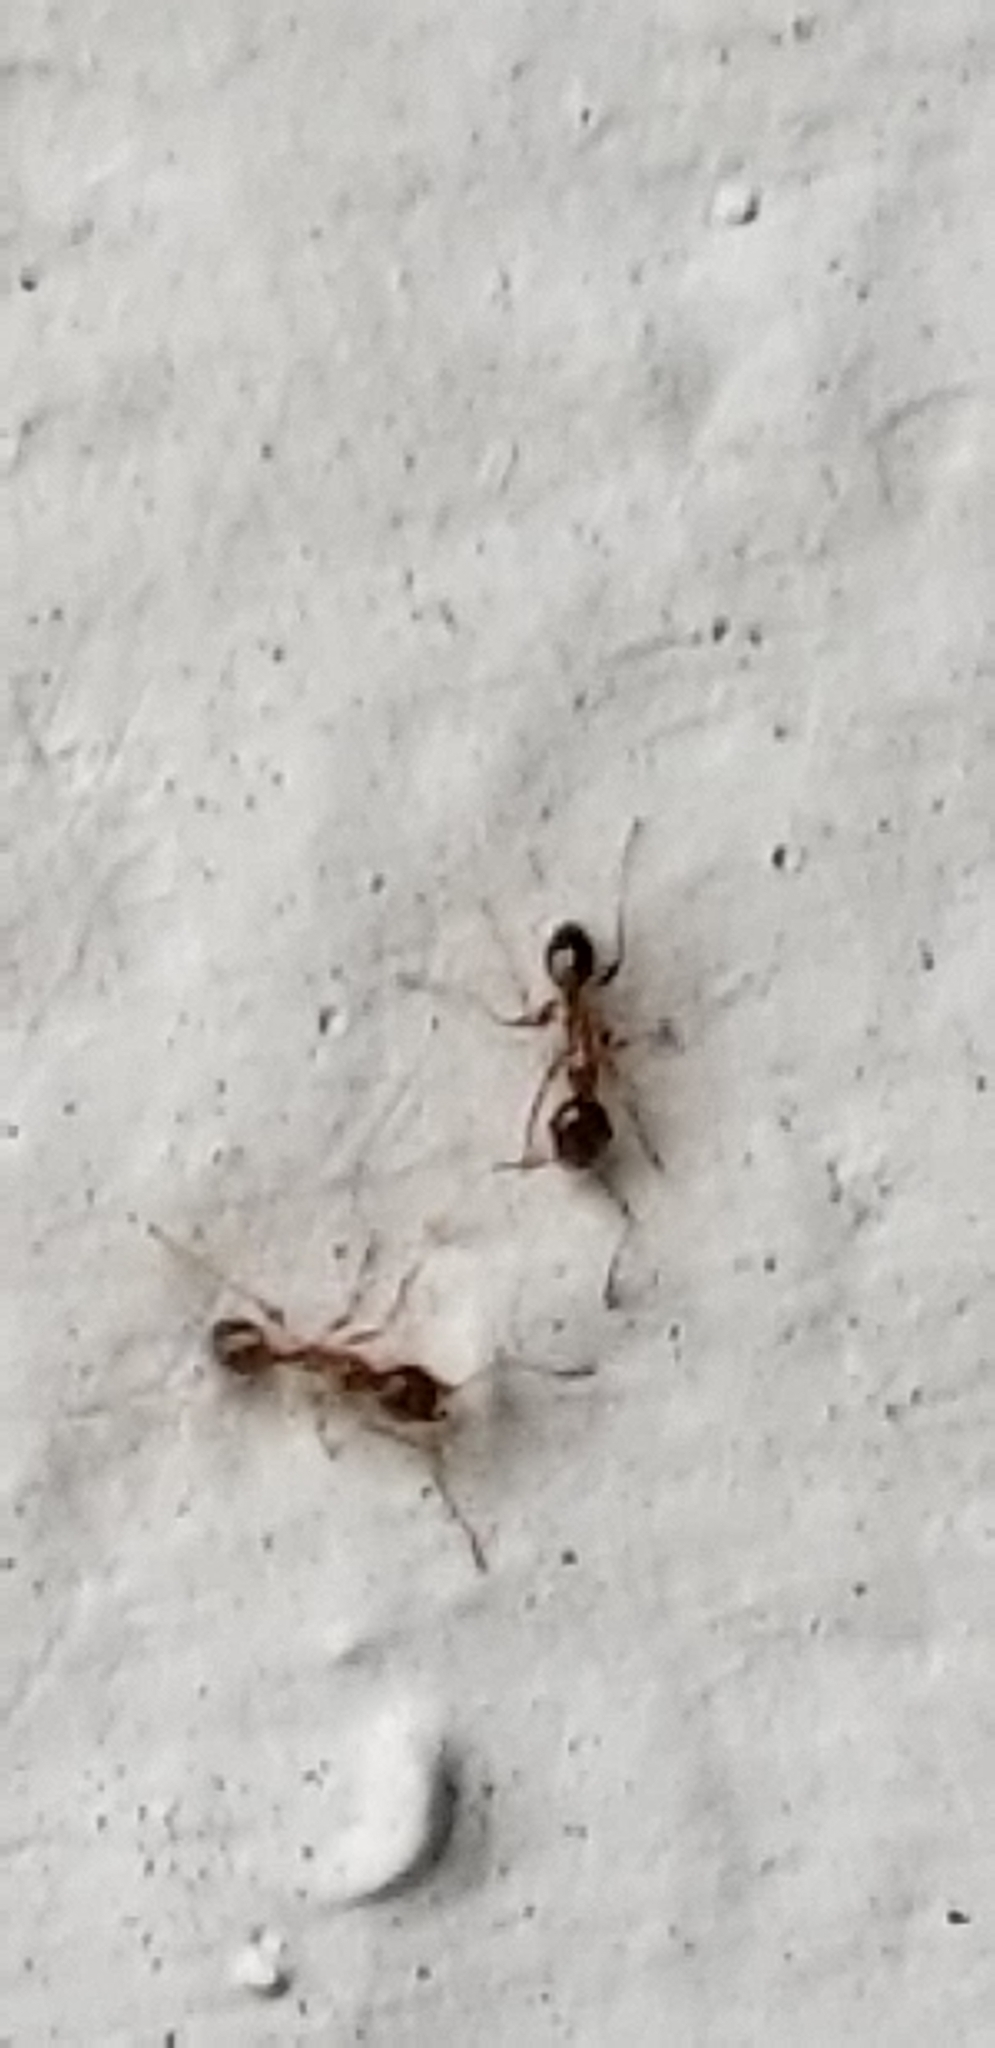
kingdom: Animalia
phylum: Arthropoda
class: Insecta
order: Hymenoptera
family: Formicidae
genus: Pheidole
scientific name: Pheidole megacephala
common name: Bigheaded ant
